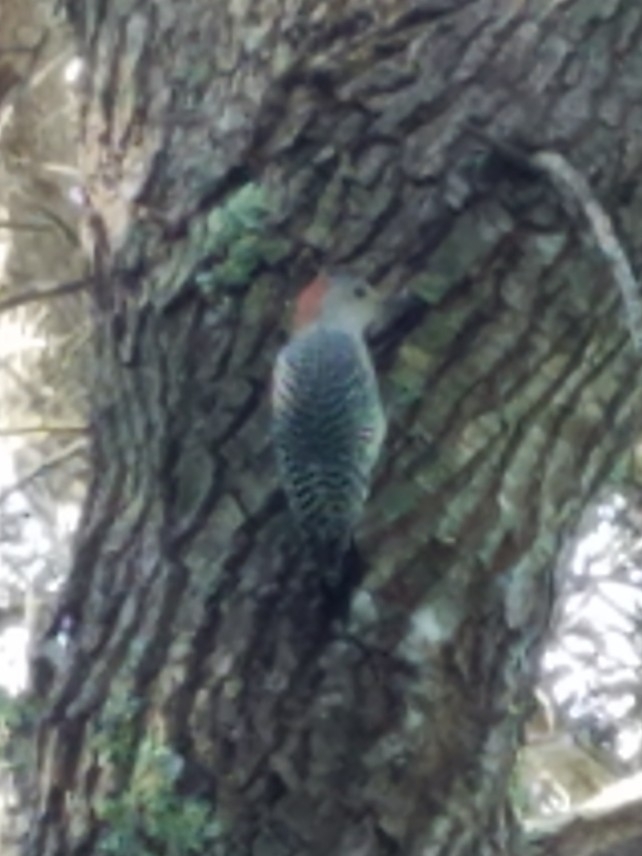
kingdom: Animalia
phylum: Chordata
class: Aves
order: Piciformes
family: Picidae
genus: Melanerpes
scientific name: Melanerpes carolinus
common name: Red-bellied woodpecker
